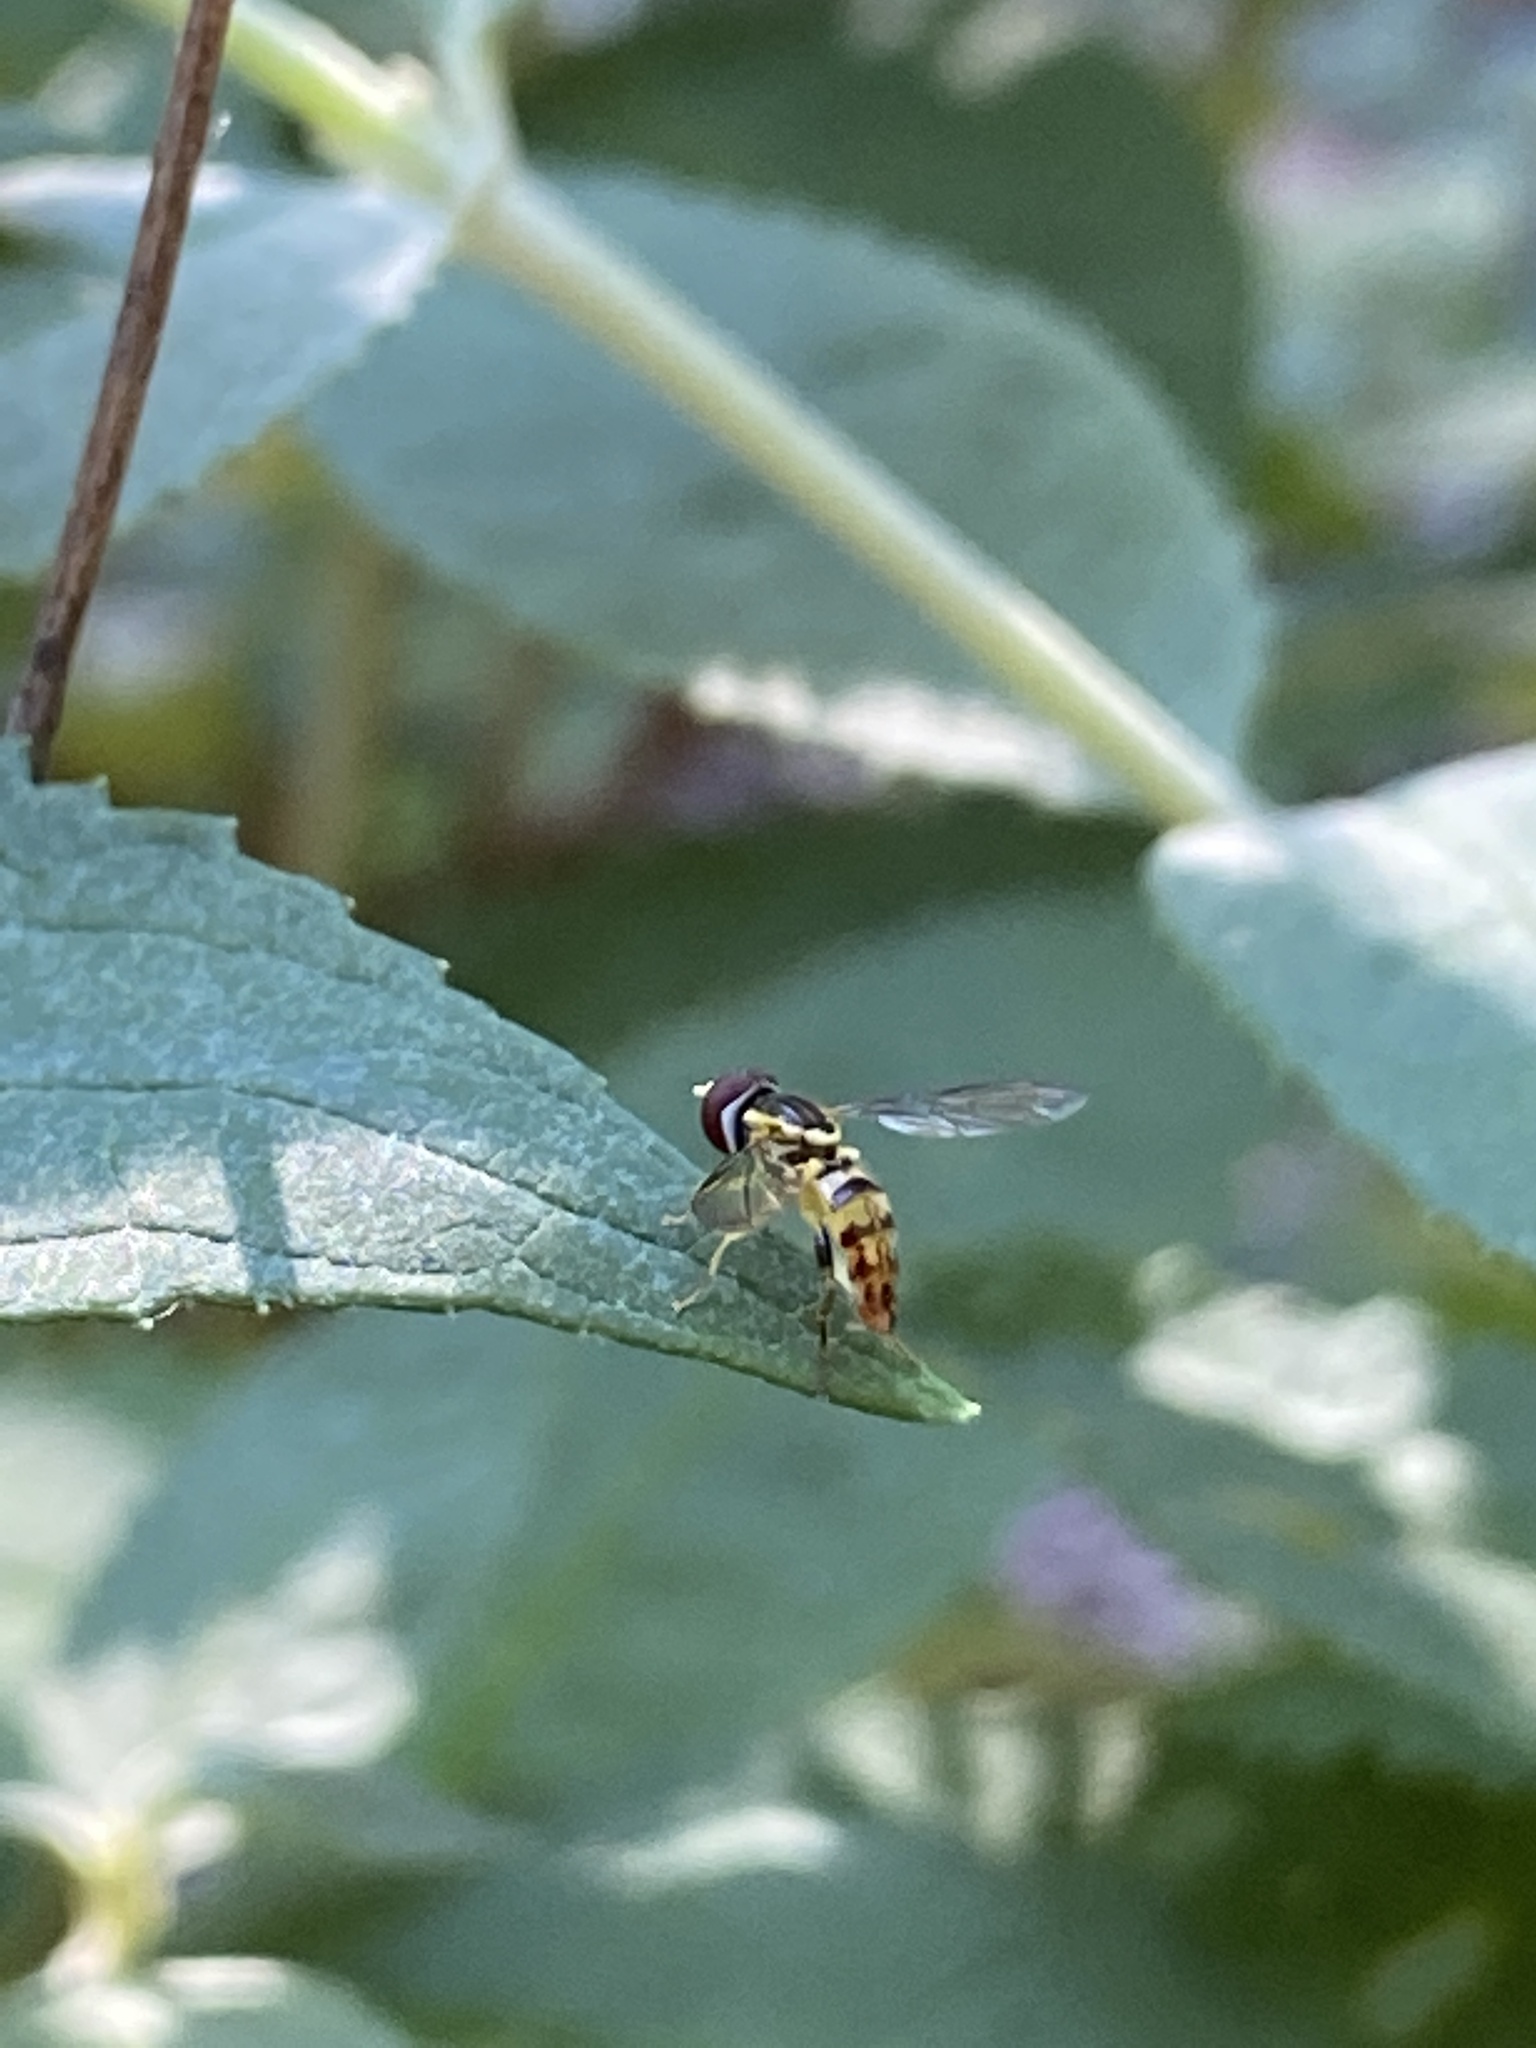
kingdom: Animalia
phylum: Arthropoda
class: Insecta
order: Diptera
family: Syrphidae
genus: Toxomerus
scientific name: Toxomerus geminatus
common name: Eastern calligrapher
